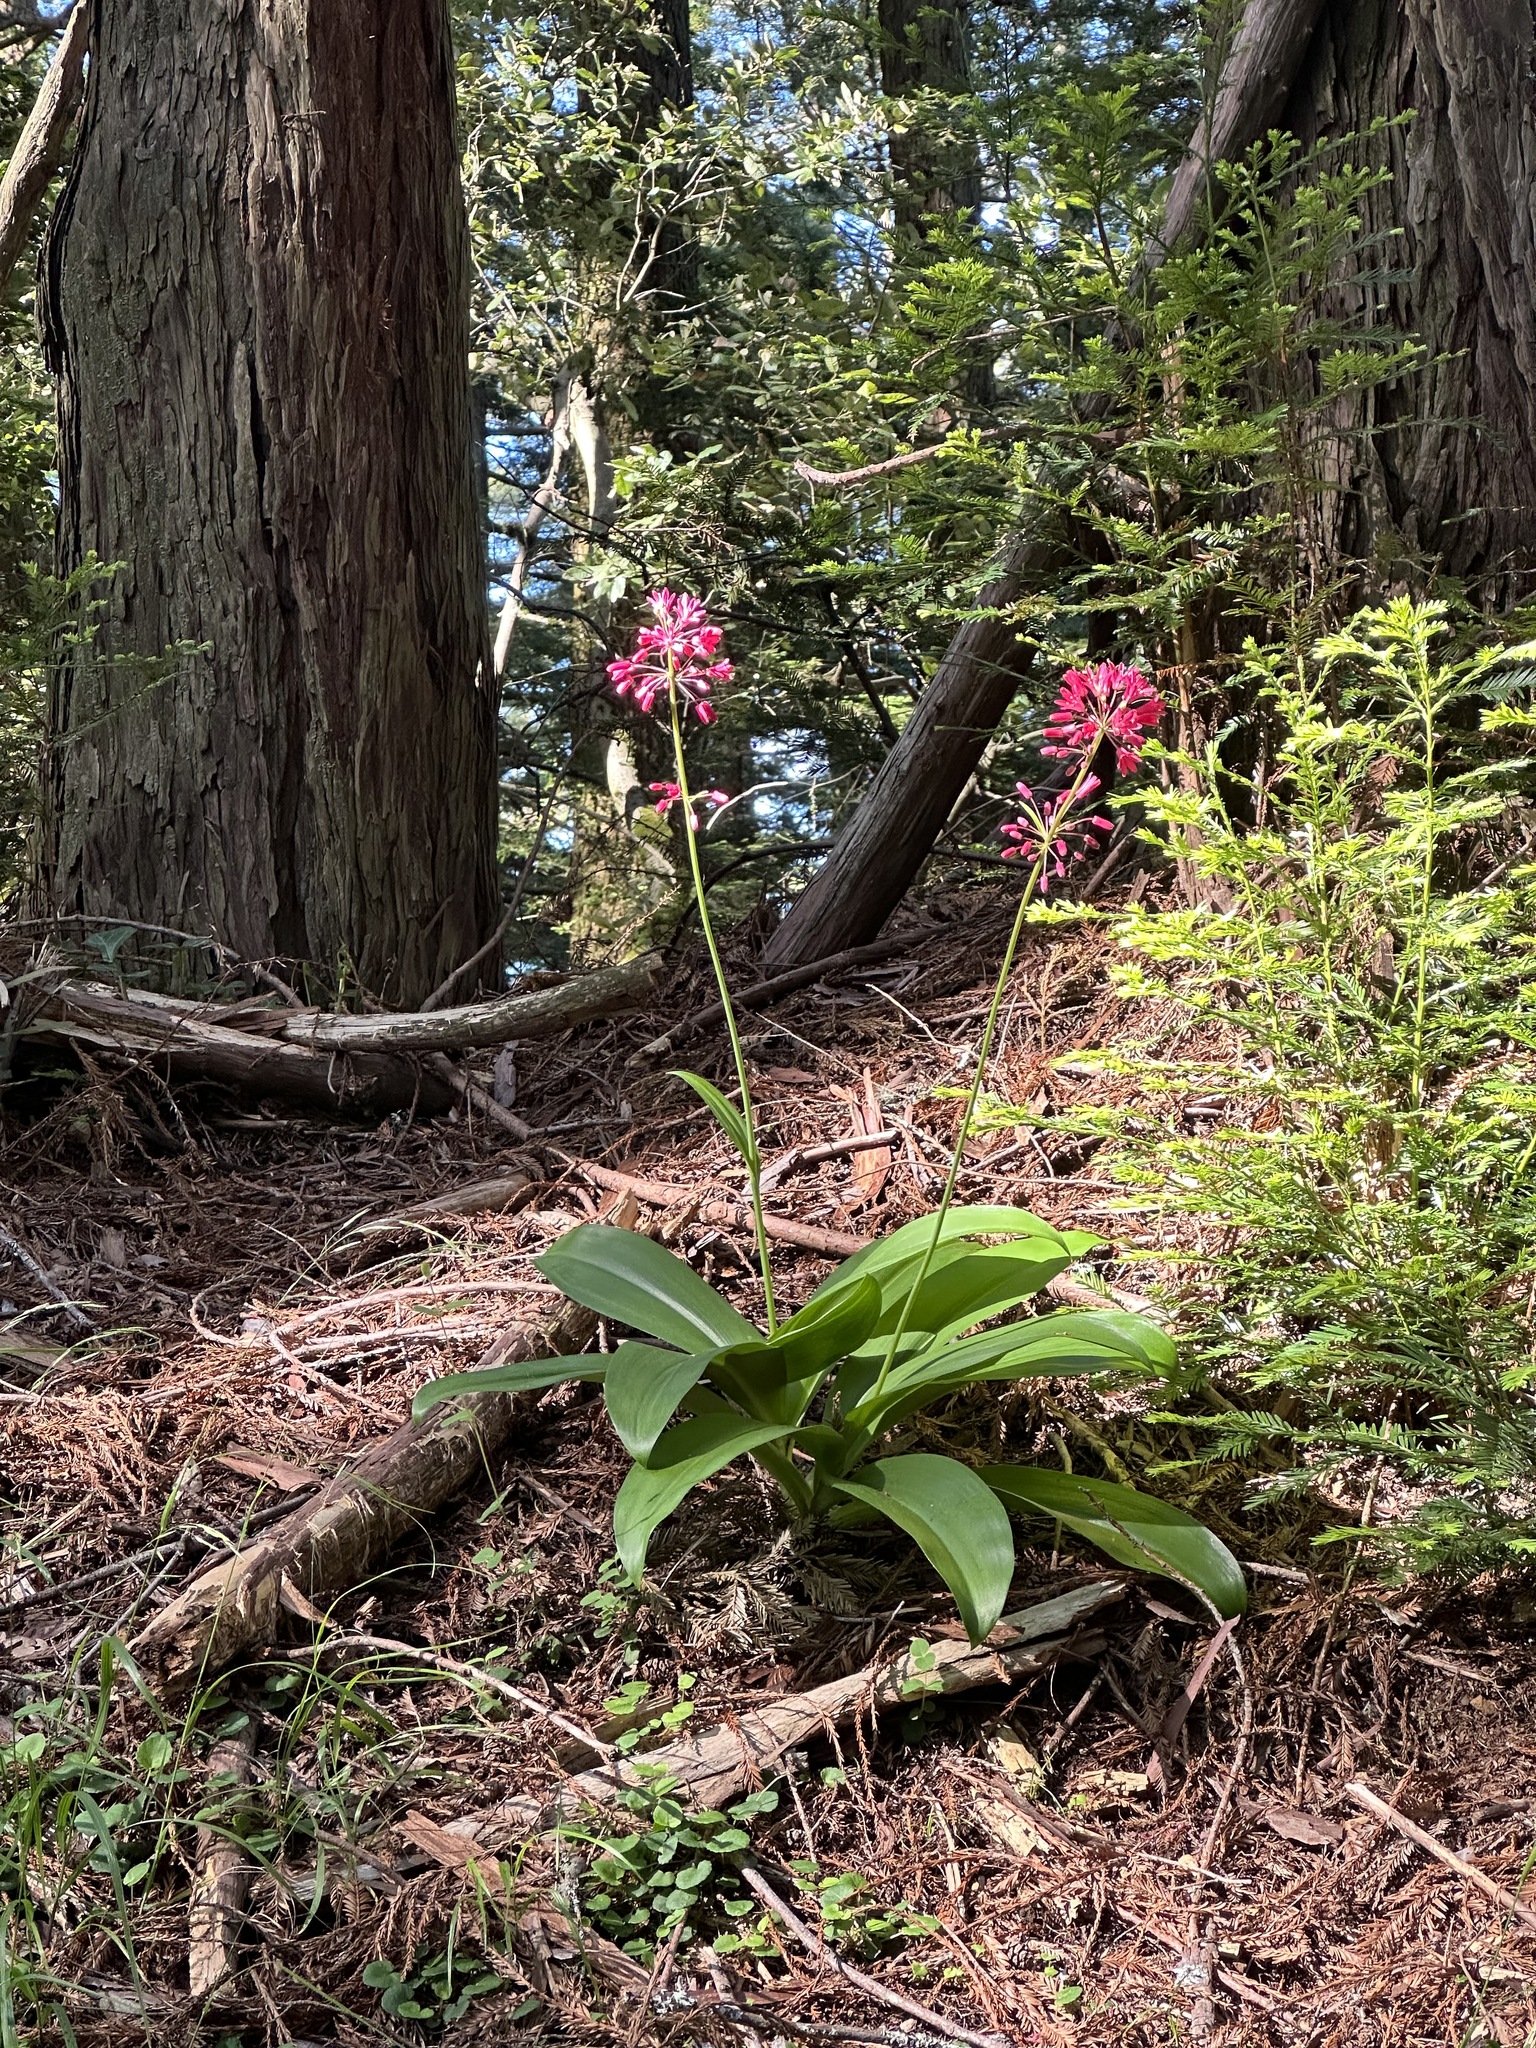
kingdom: Plantae
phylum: Tracheophyta
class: Liliopsida
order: Liliales
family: Liliaceae
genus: Clintonia
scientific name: Clintonia andrewsiana
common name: Red clintonia
